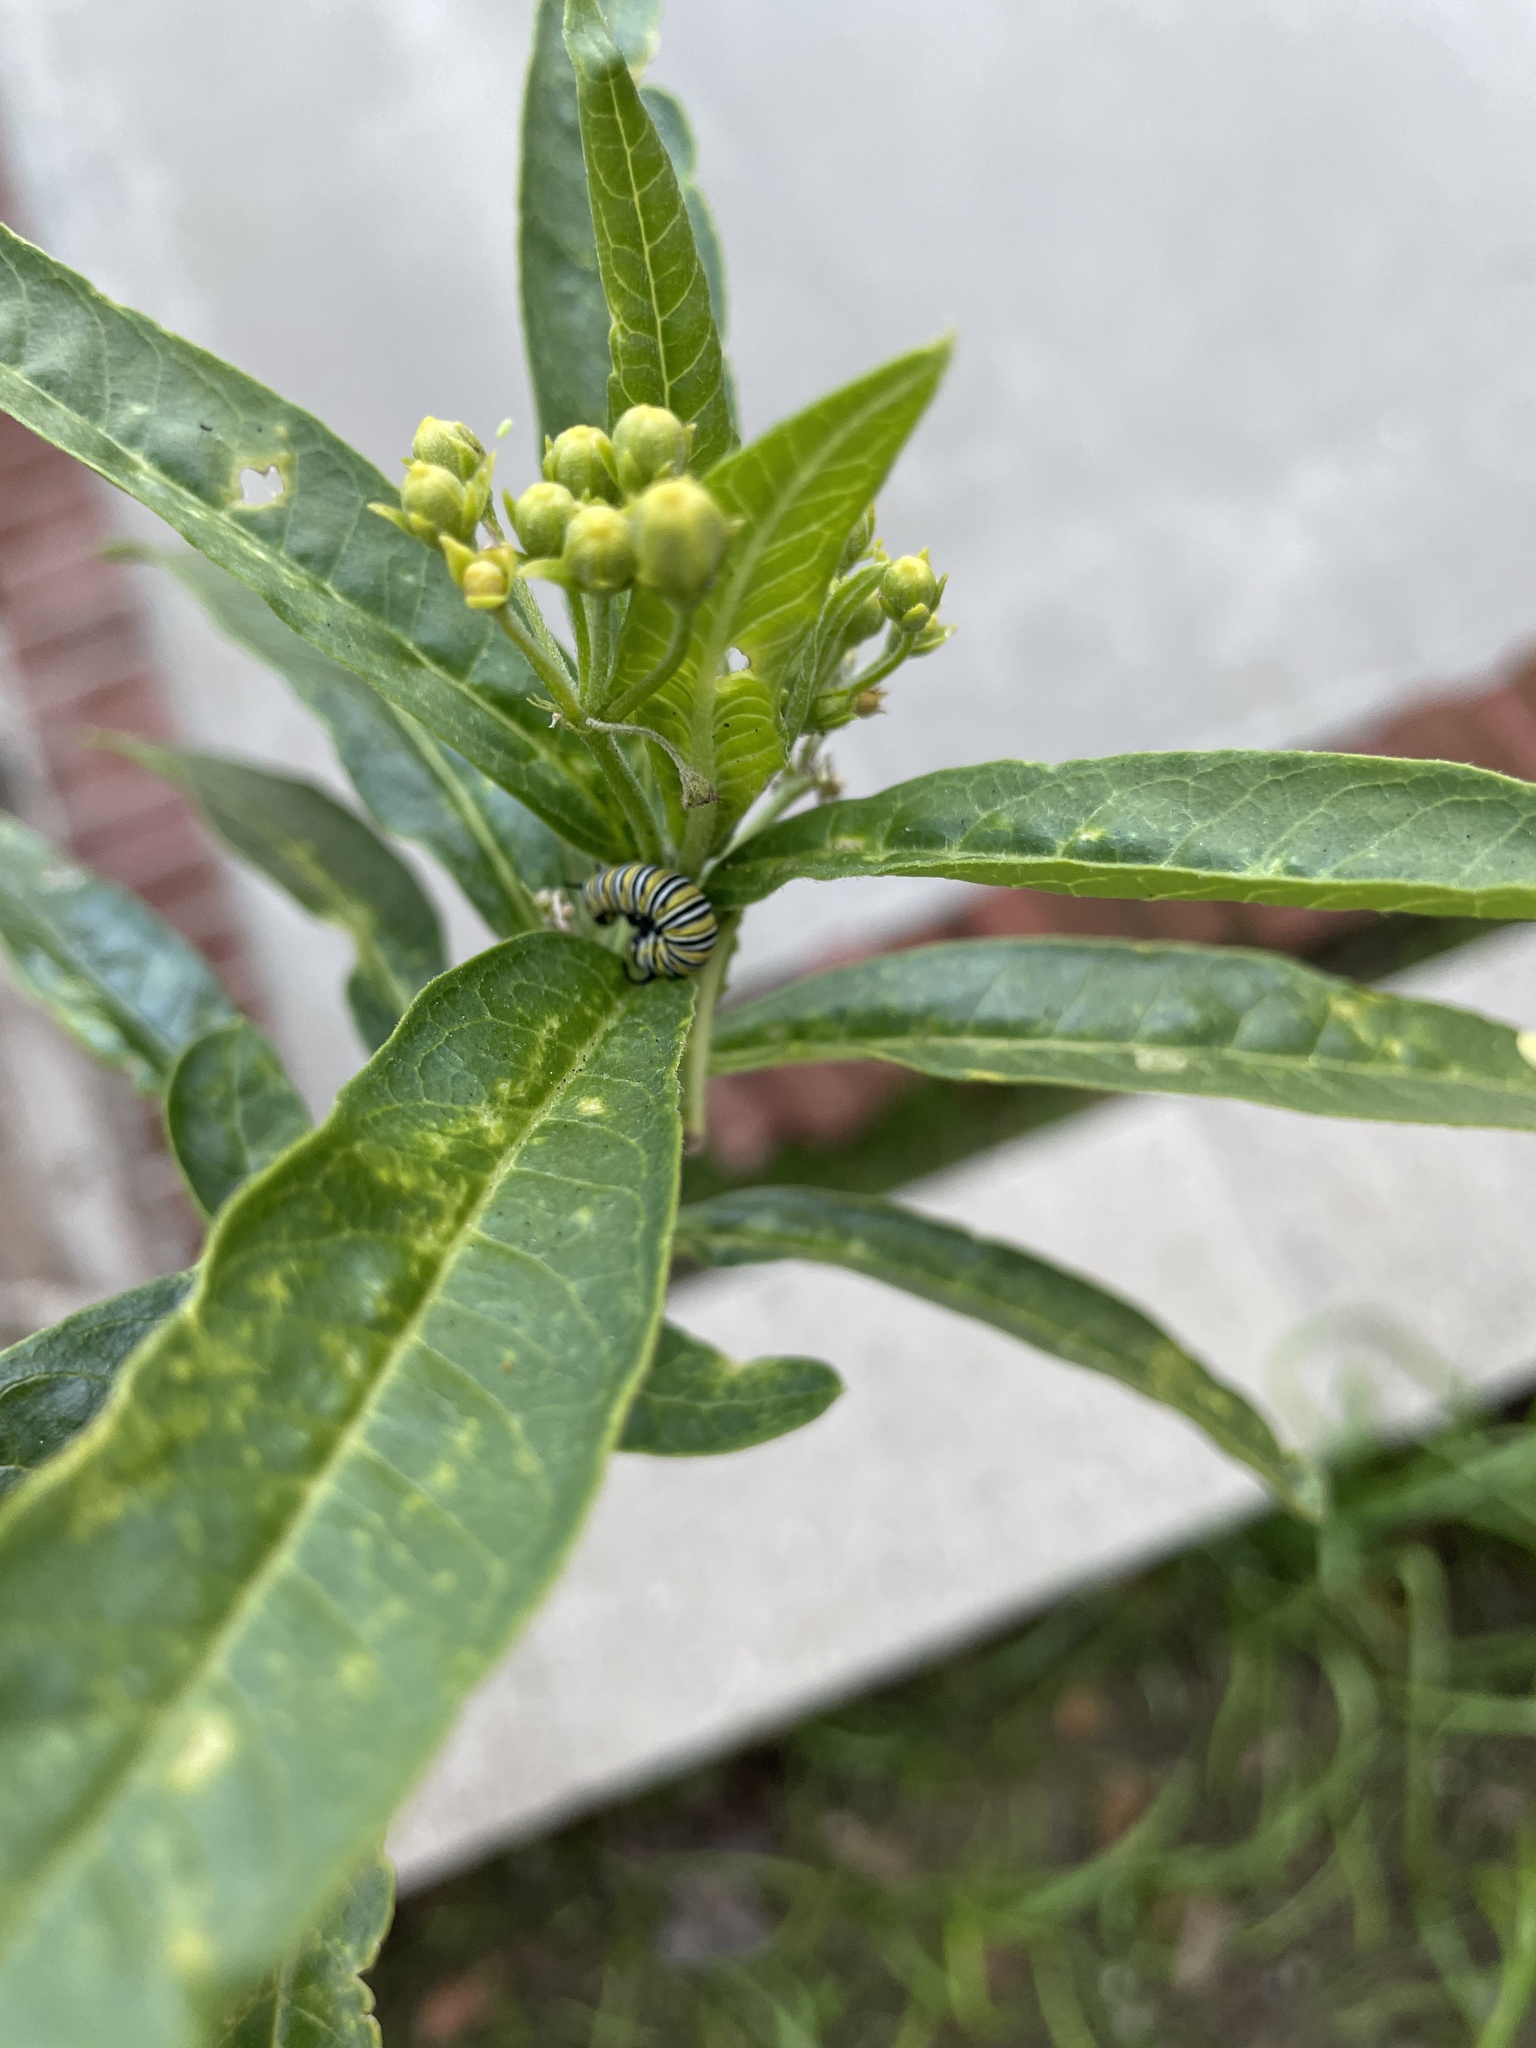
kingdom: Animalia
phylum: Arthropoda
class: Insecta
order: Lepidoptera
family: Nymphalidae
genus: Danaus
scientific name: Danaus plexippus
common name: Monarch
